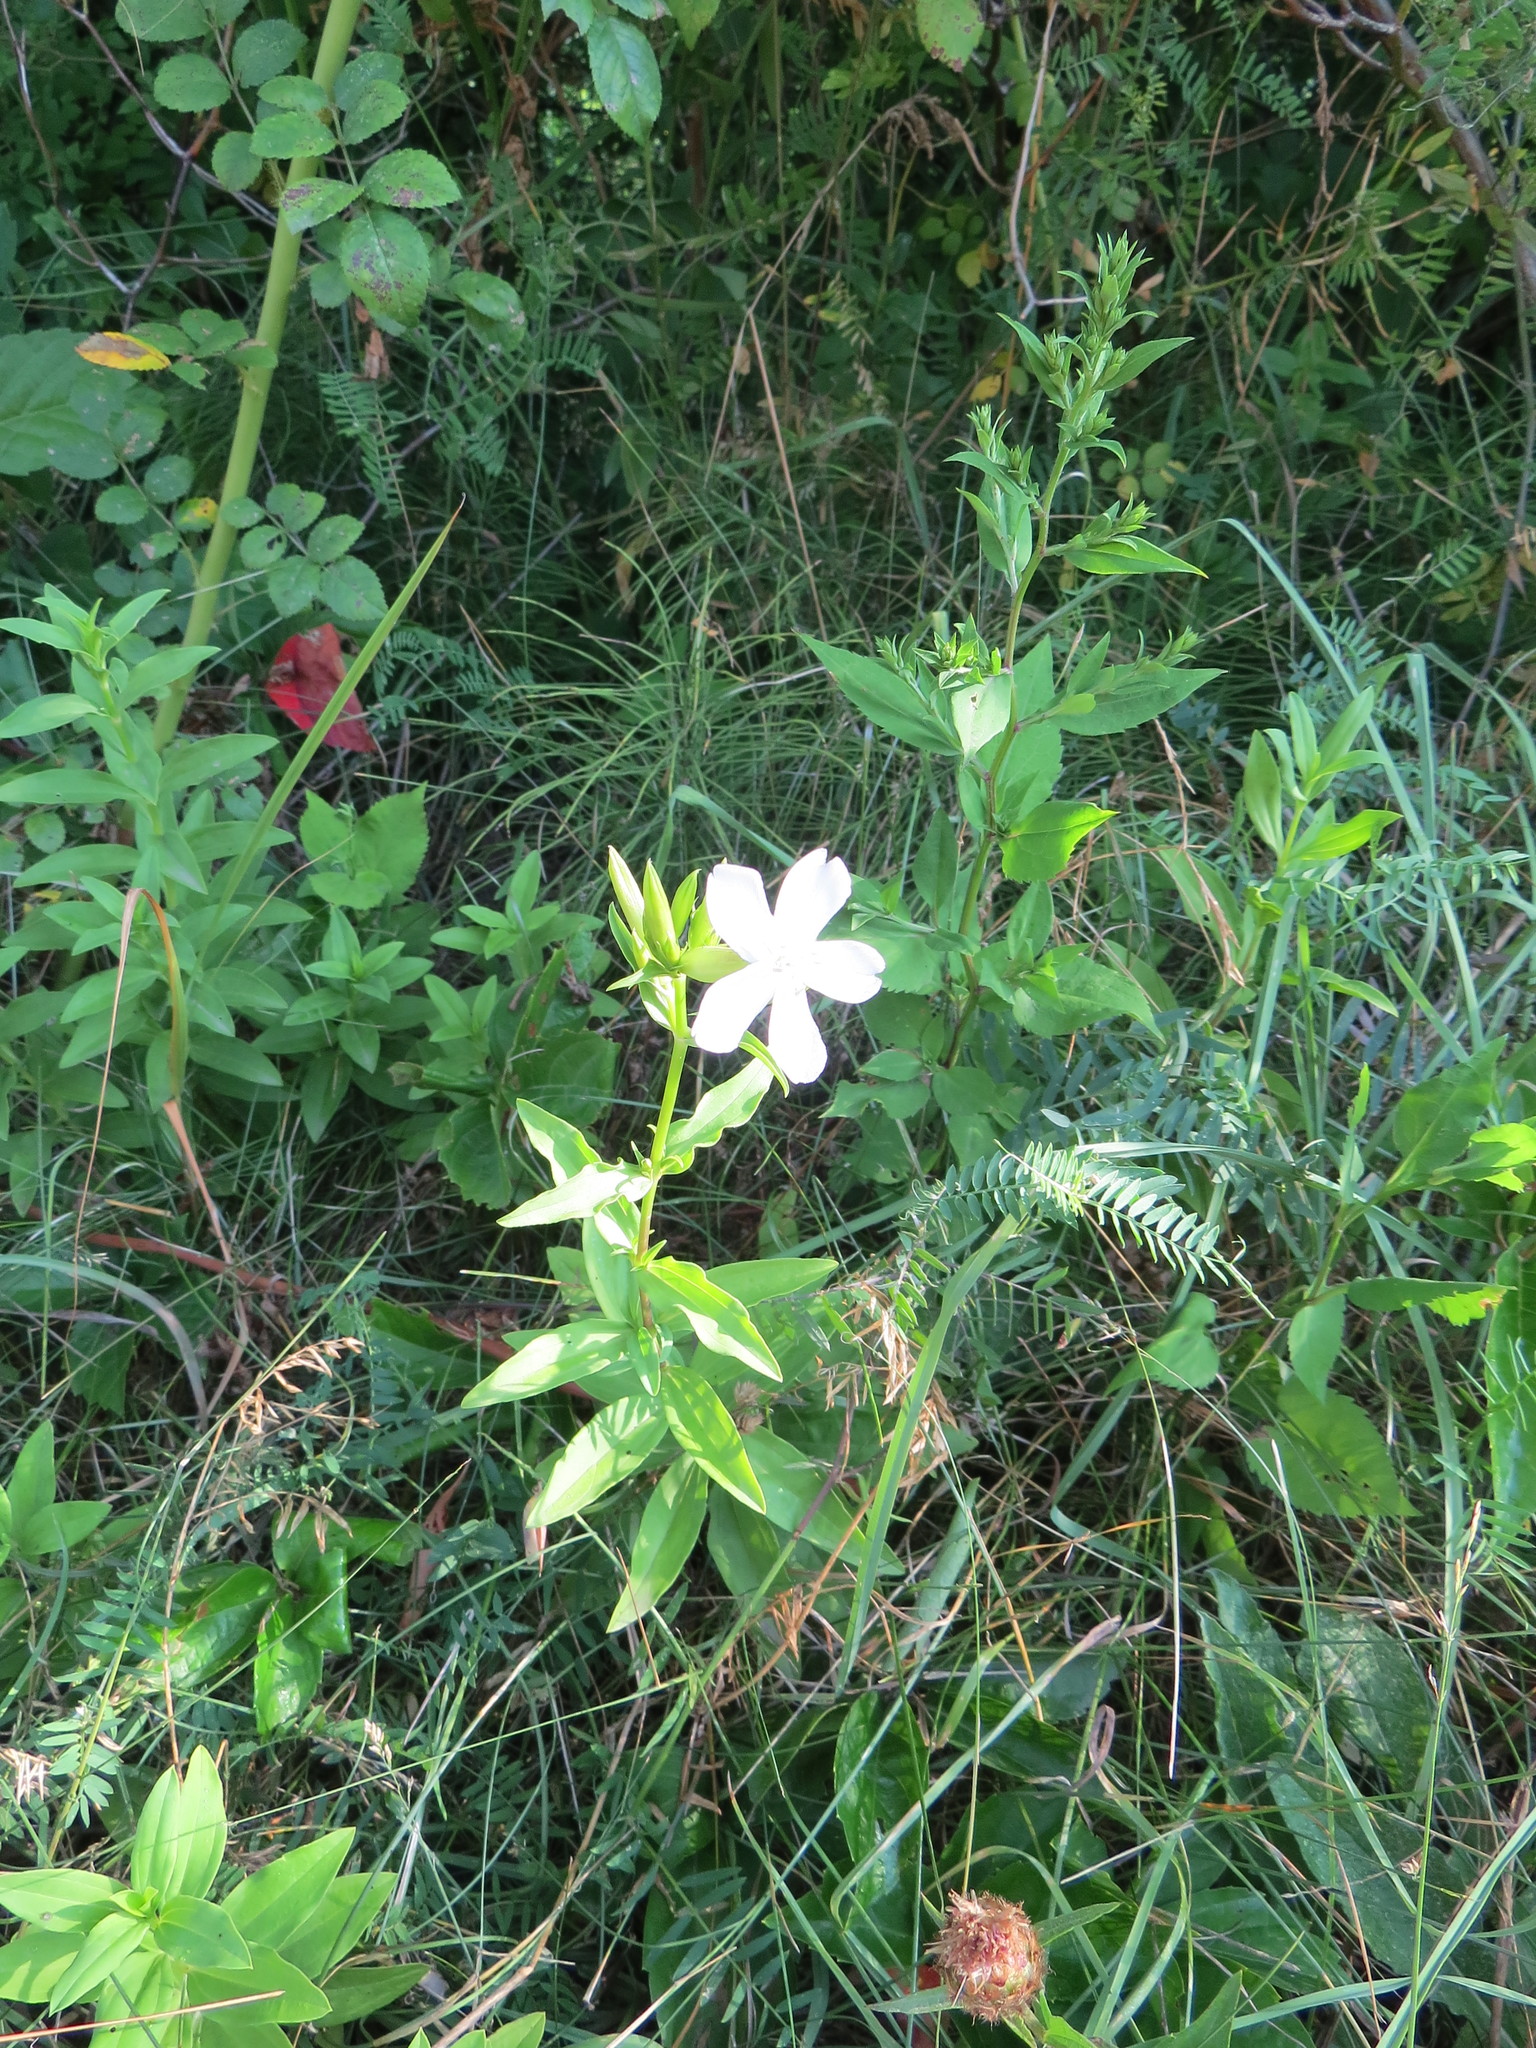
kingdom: Plantae
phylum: Tracheophyta
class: Magnoliopsida
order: Caryophyllales
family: Caryophyllaceae
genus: Saponaria
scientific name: Saponaria officinalis
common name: Soapwort
